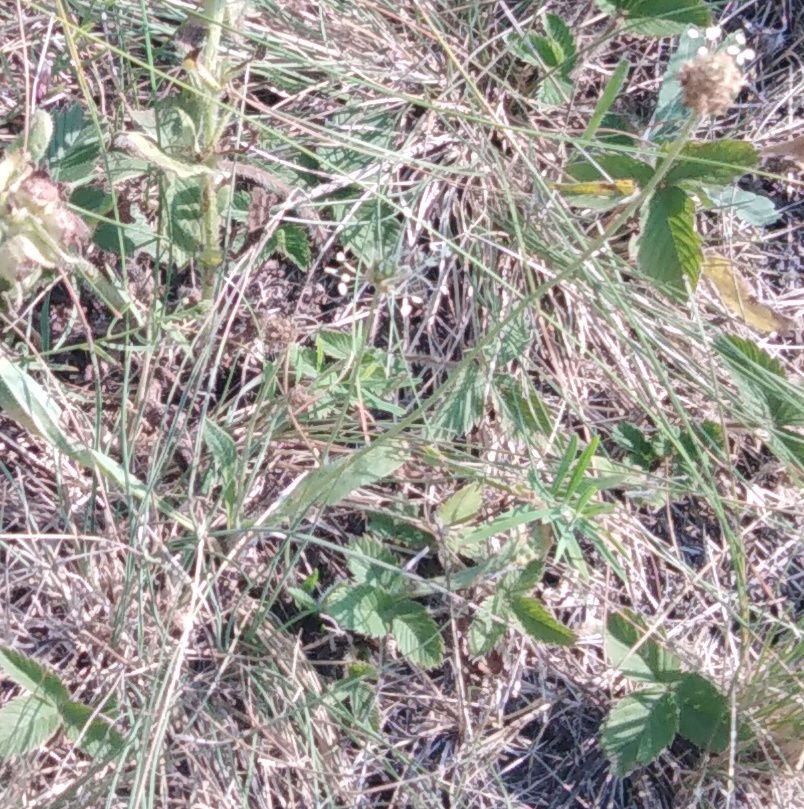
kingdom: Plantae
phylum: Tracheophyta
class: Magnoliopsida
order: Lamiales
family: Plantaginaceae
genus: Plantago
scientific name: Plantago lanceolata
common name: Ribwort plantain
